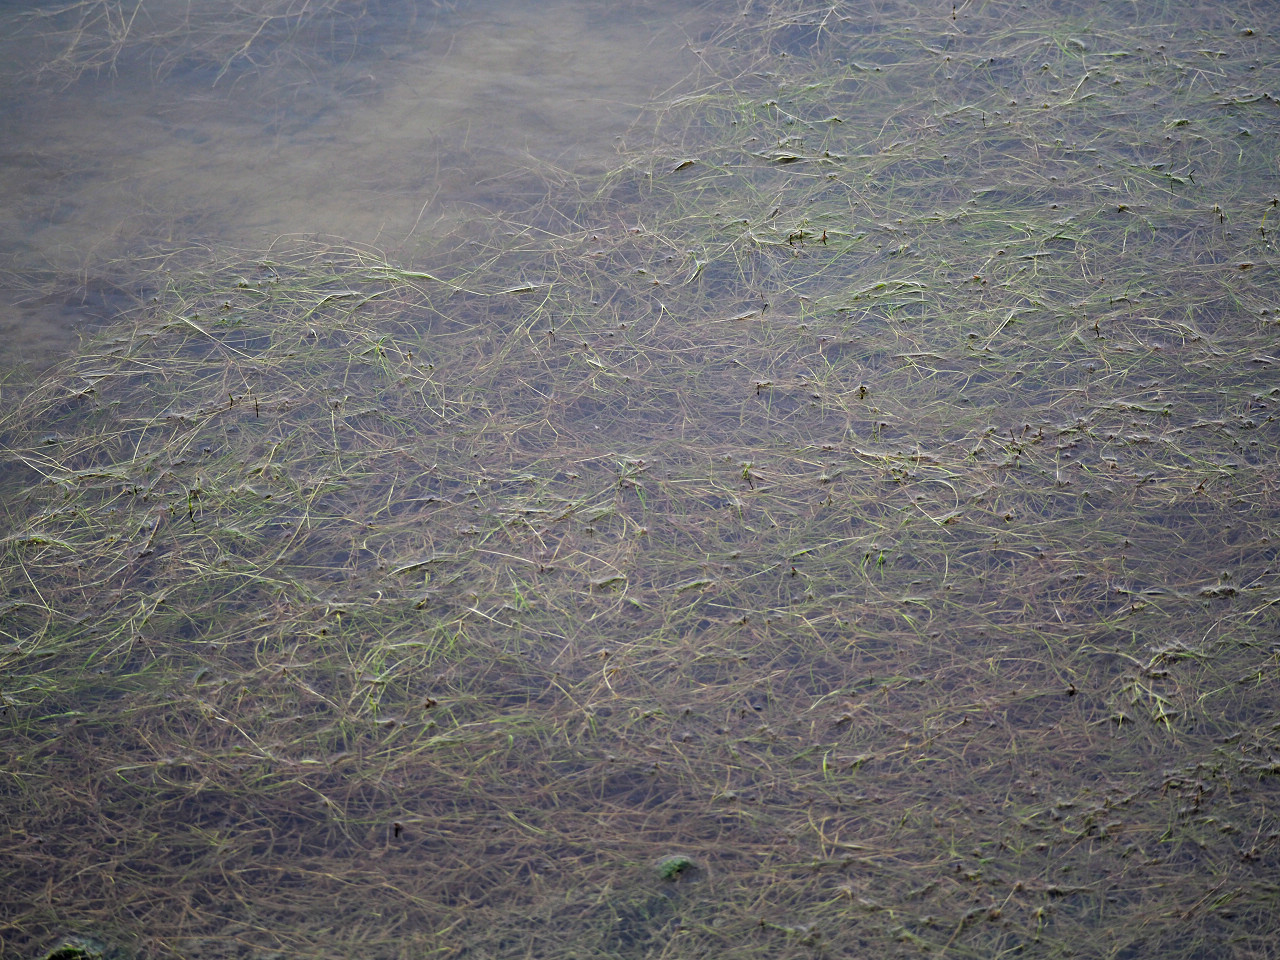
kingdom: Plantae
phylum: Tracheophyta
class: Liliopsida
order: Alismatales
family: Ruppiaceae
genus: Ruppia
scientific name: Ruppia maritima
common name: Beaked tasselweed
